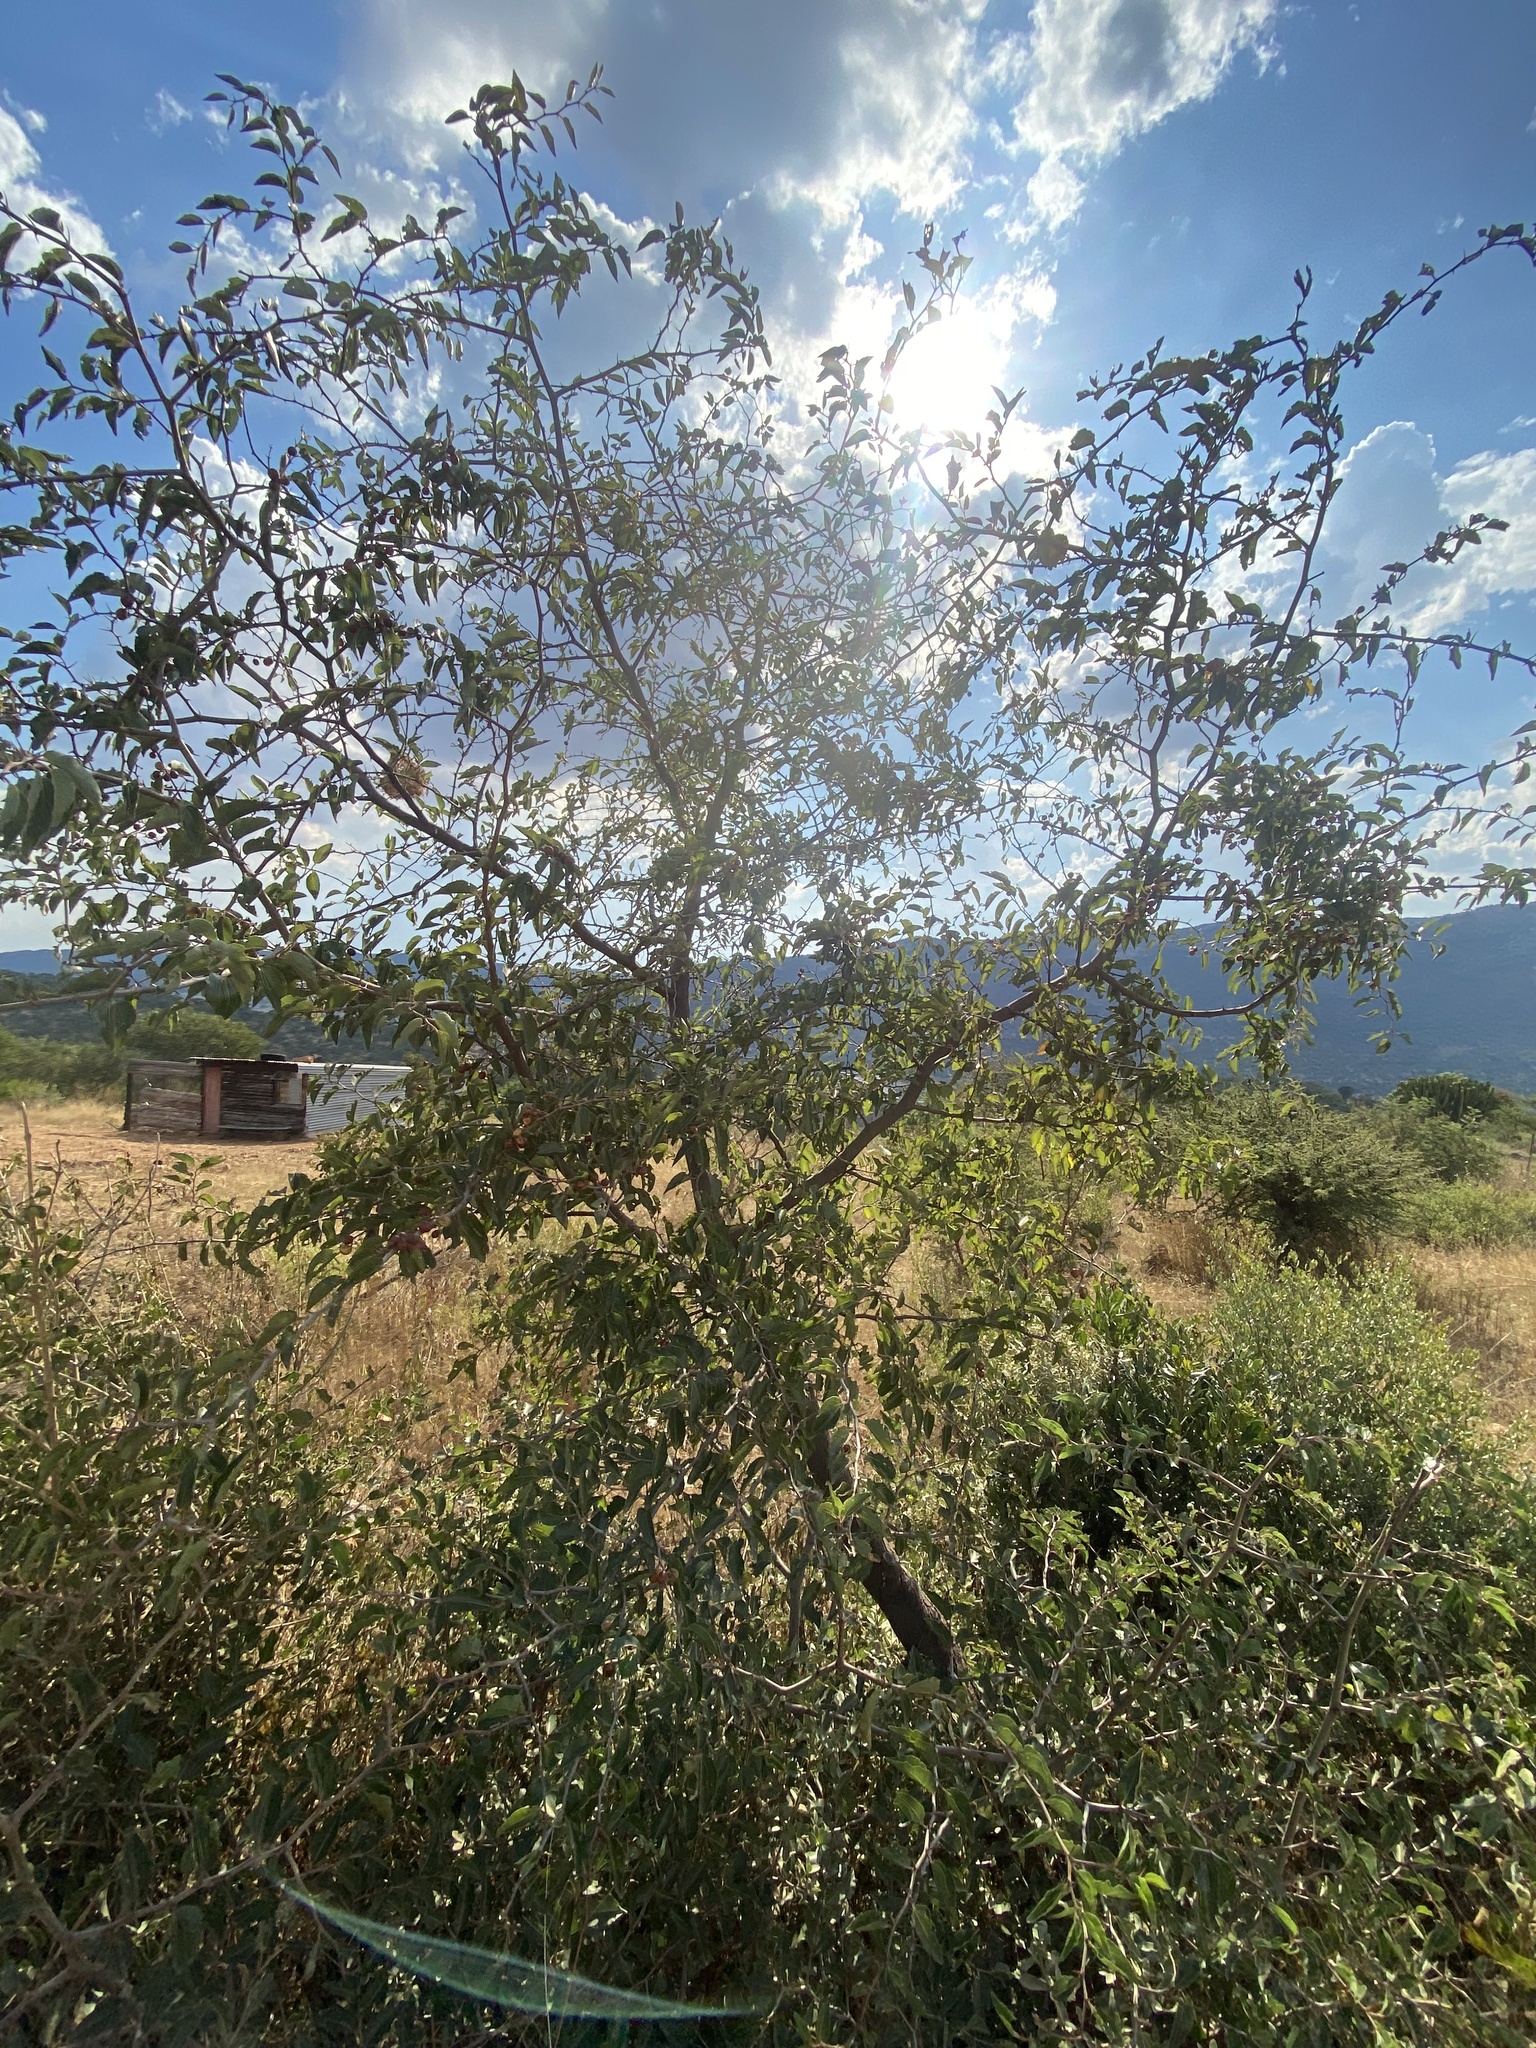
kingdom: Plantae
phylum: Tracheophyta
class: Magnoliopsida
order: Rosales
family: Rhamnaceae
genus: Ziziphus
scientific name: Ziziphus mucronata
